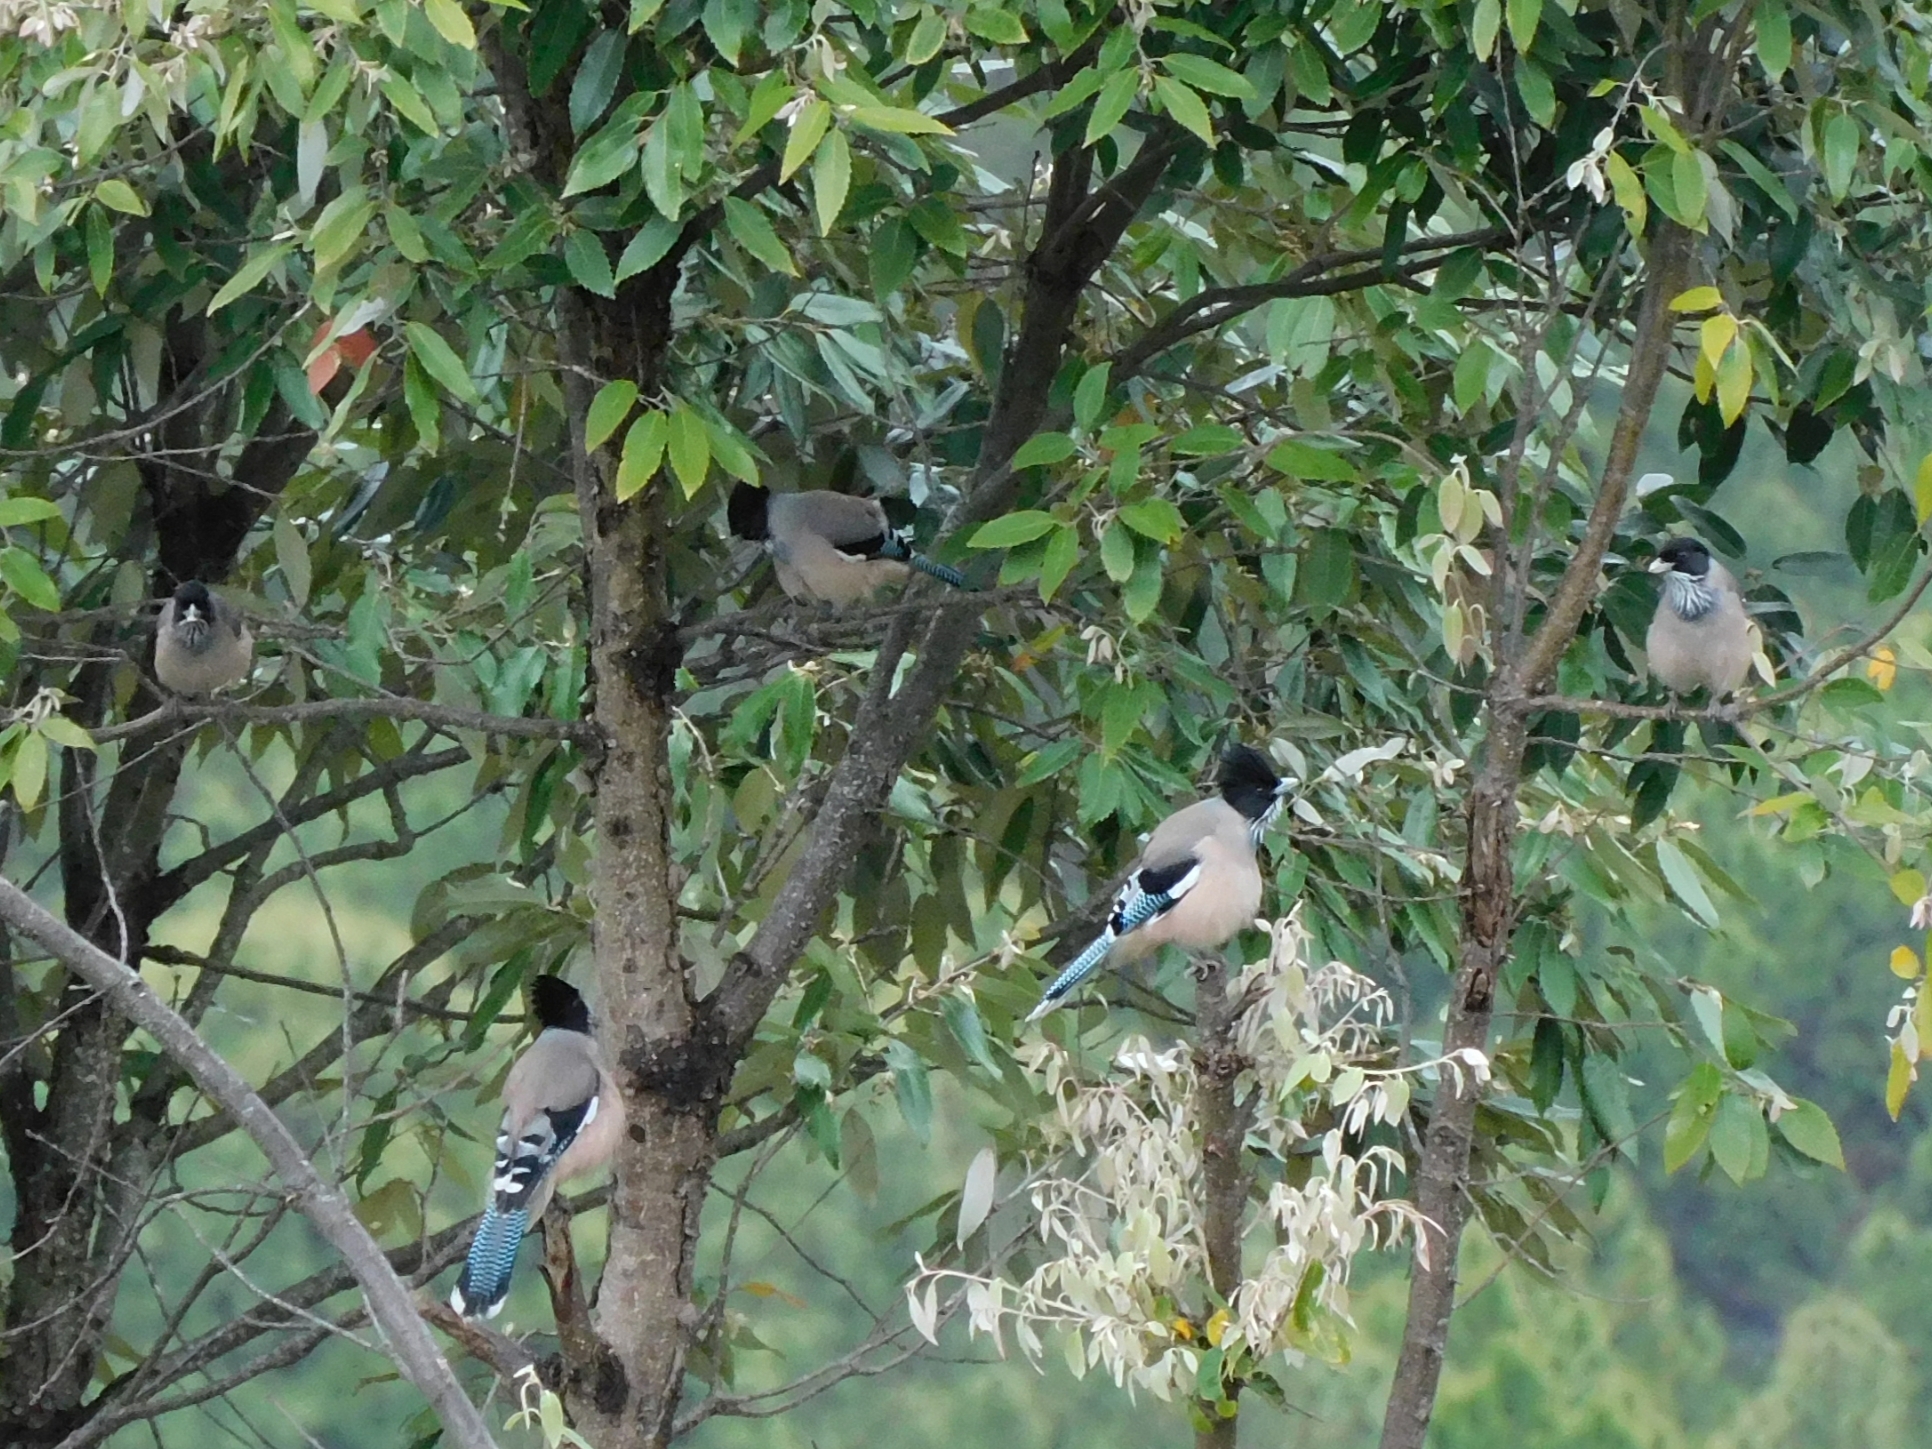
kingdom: Animalia
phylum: Chordata
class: Aves
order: Passeriformes
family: Corvidae
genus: Garrulus
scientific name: Garrulus lanceolatus
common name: Black-headed jay
